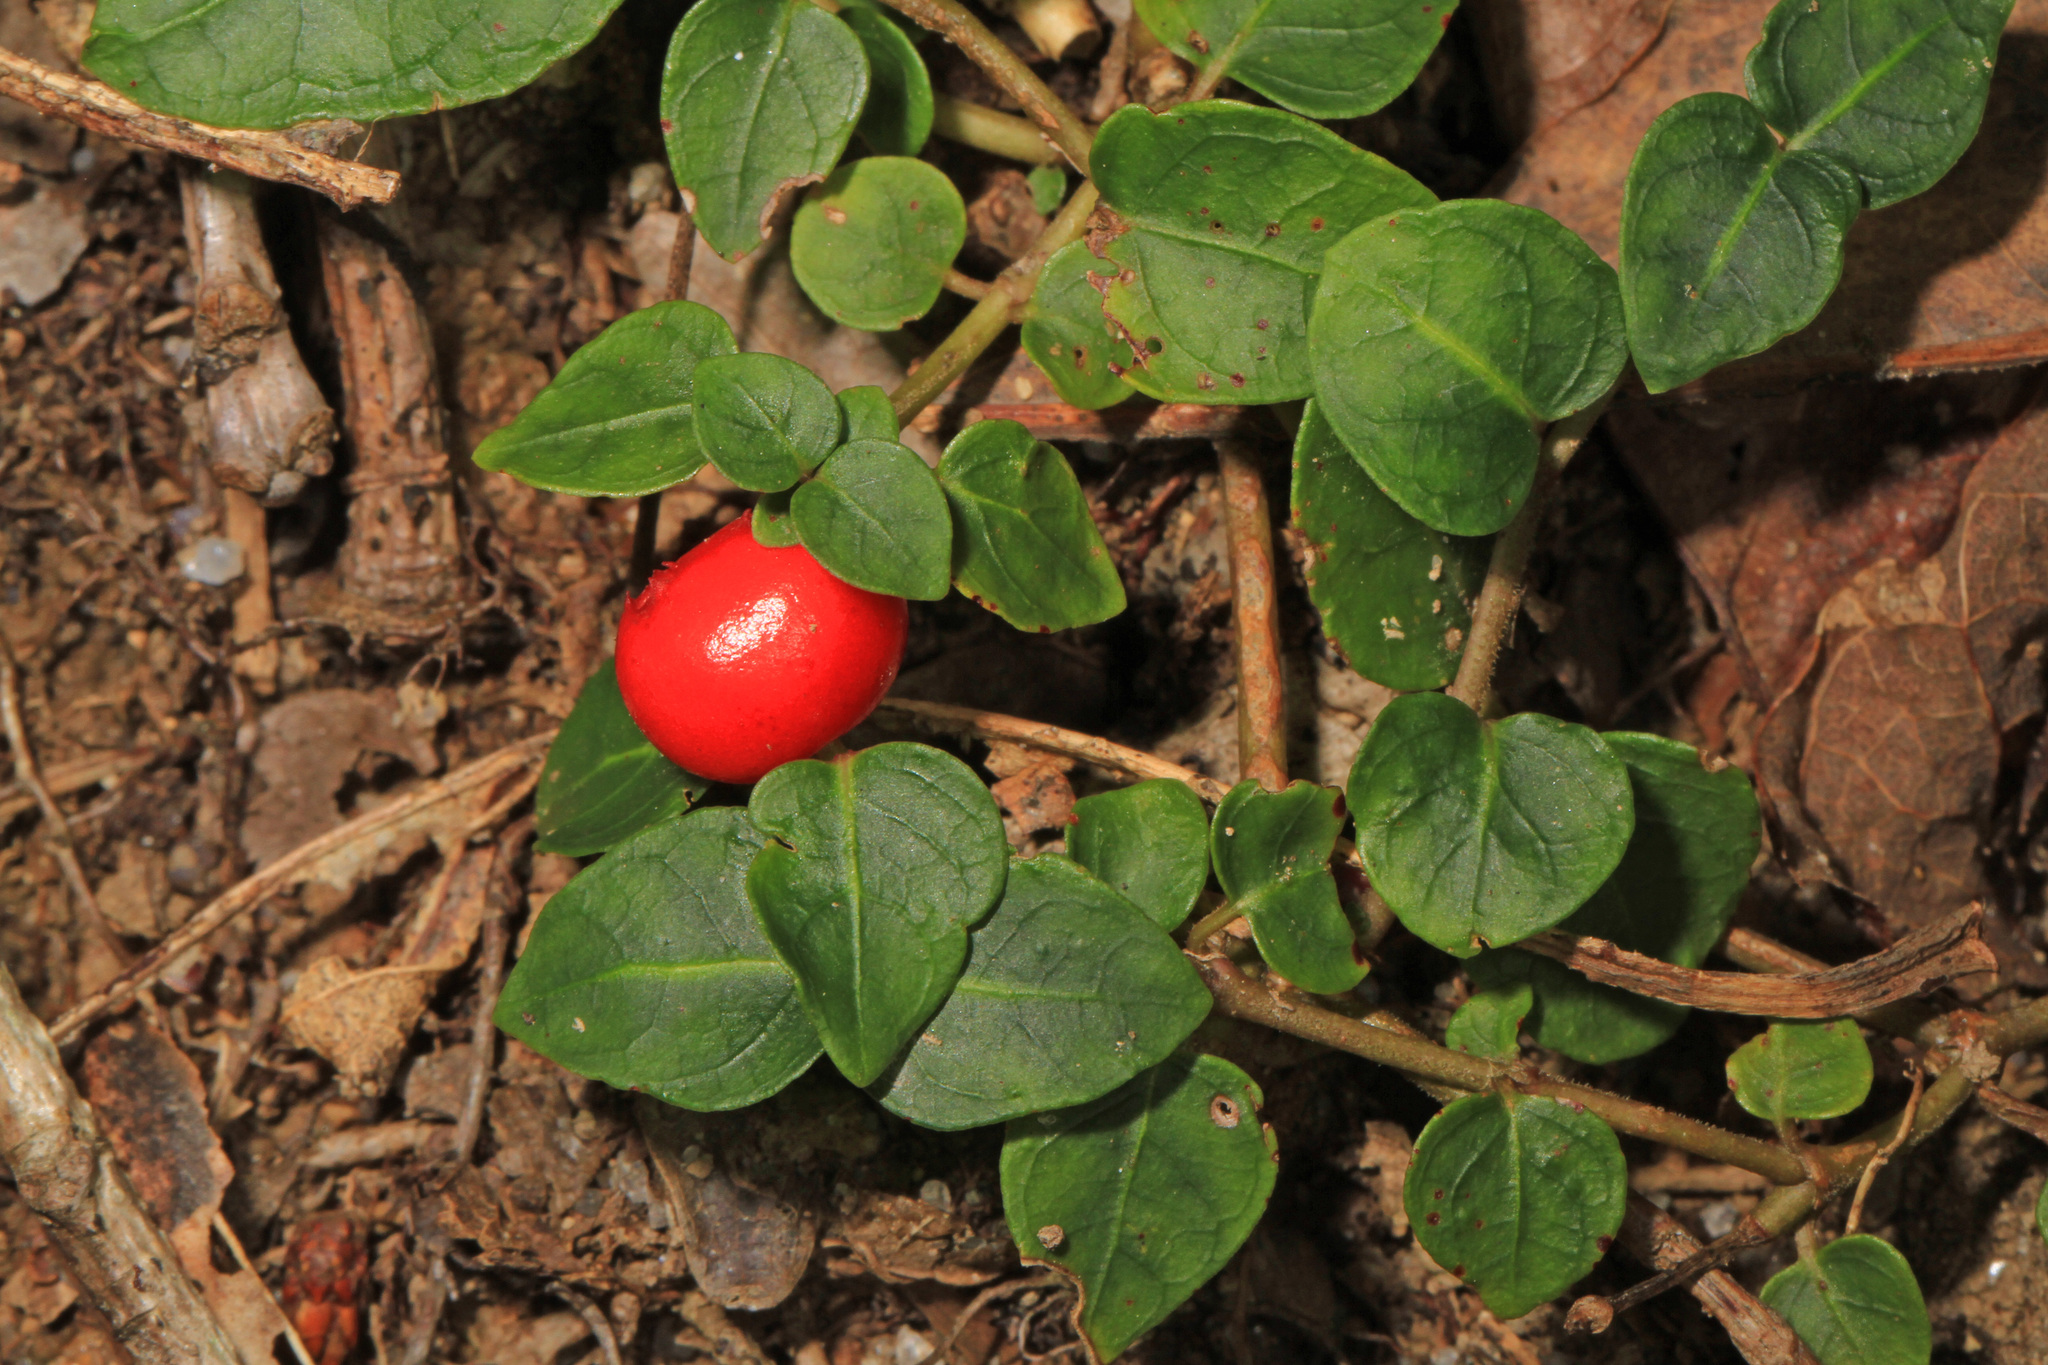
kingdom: Plantae
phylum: Tracheophyta
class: Magnoliopsida
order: Gentianales
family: Rubiaceae
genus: Mitchella
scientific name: Mitchella repens
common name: Partridge-berry
